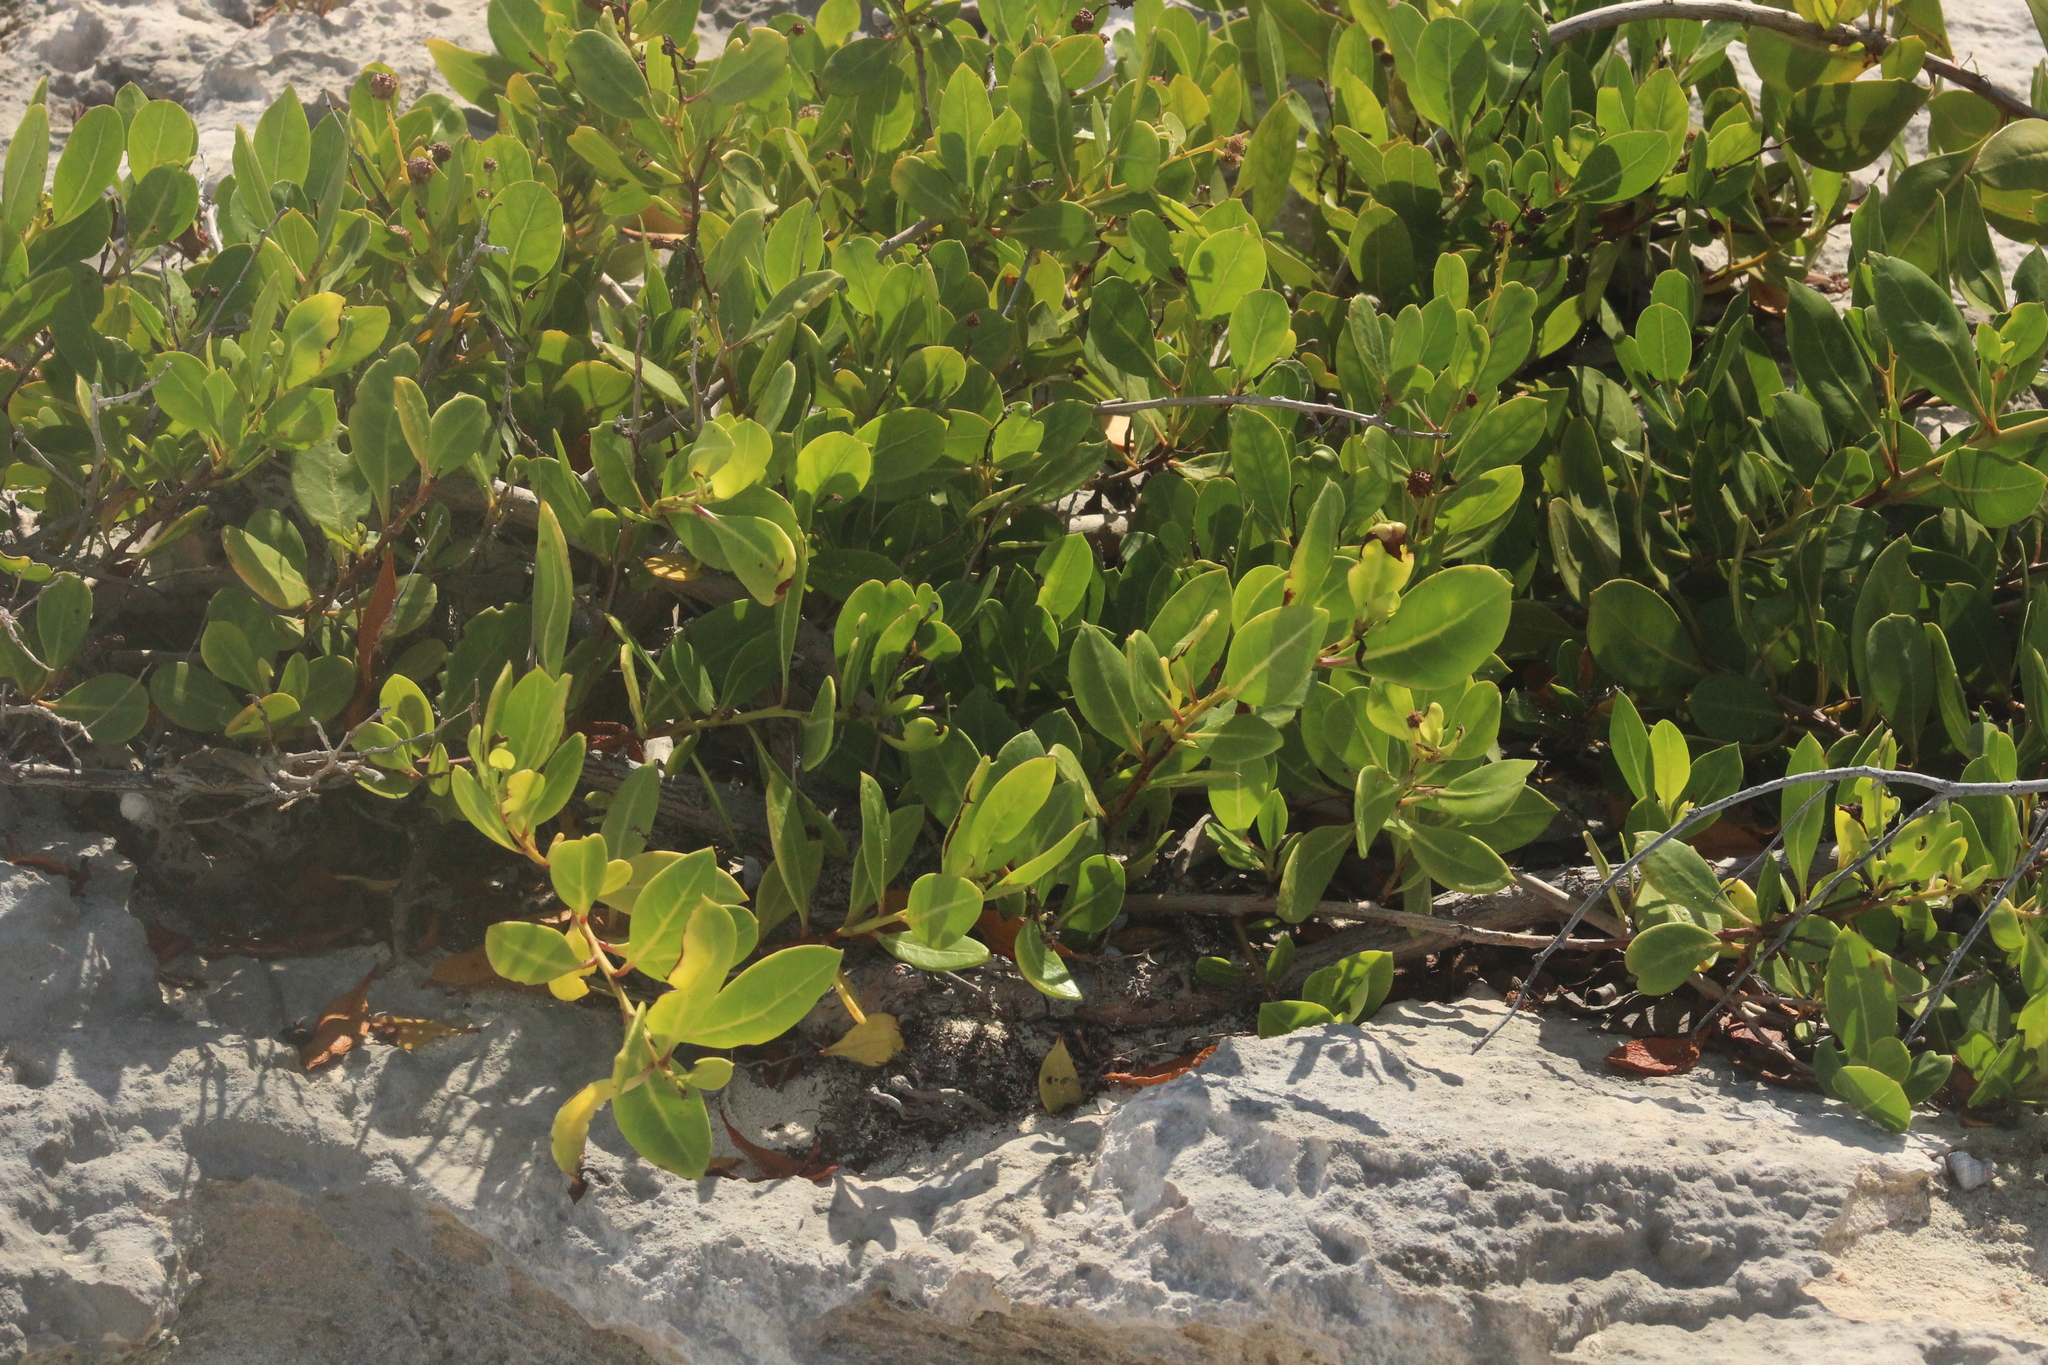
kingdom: Plantae
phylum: Tracheophyta
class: Magnoliopsida
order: Myrtales
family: Combretaceae
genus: Conocarpus
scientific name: Conocarpus erectus
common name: Button mangrove
